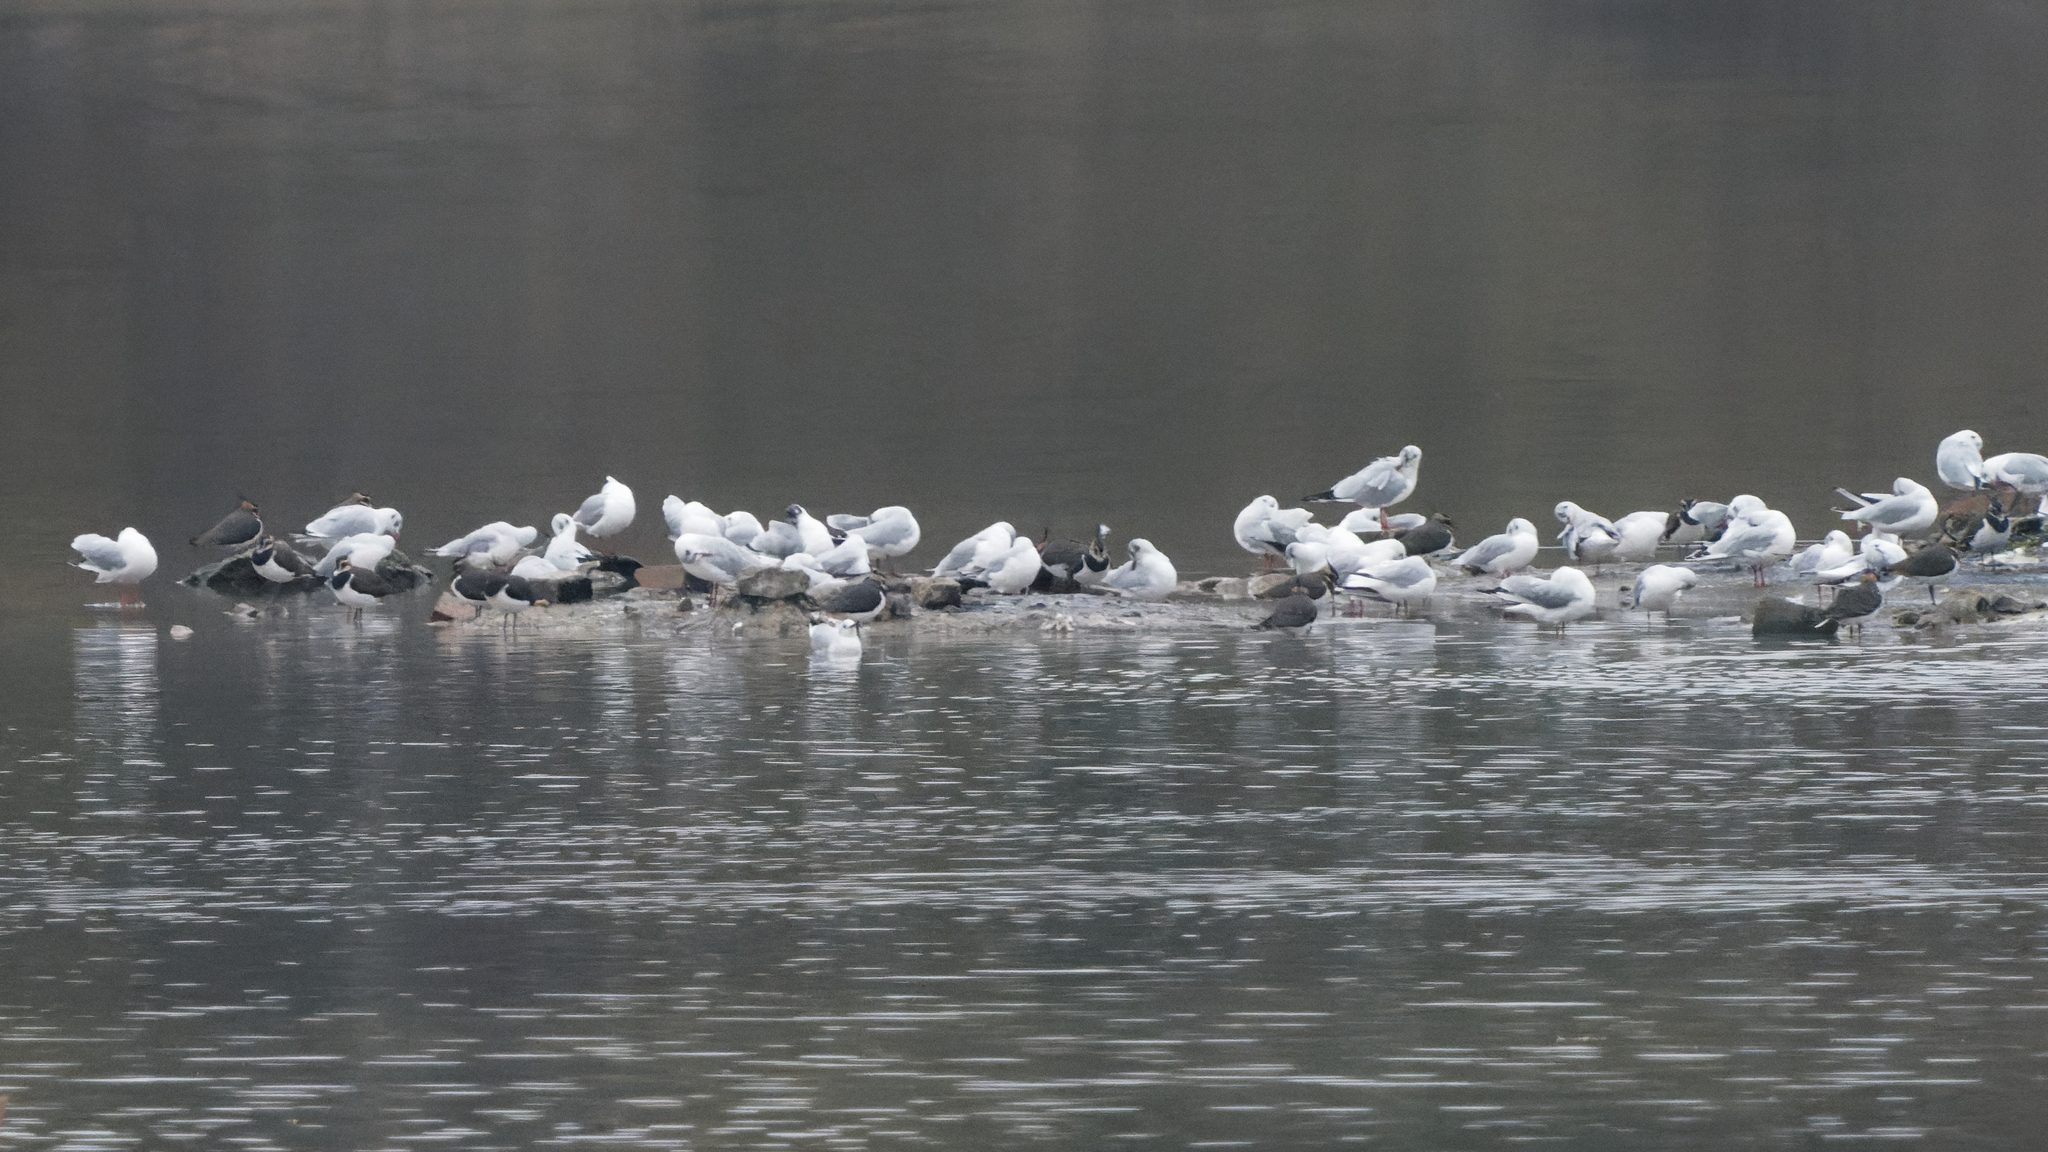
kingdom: Animalia
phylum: Chordata
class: Aves
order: Charadriiformes
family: Laridae
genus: Chroicocephalus
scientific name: Chroicocephalus ridibundus
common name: Black-headed gull
